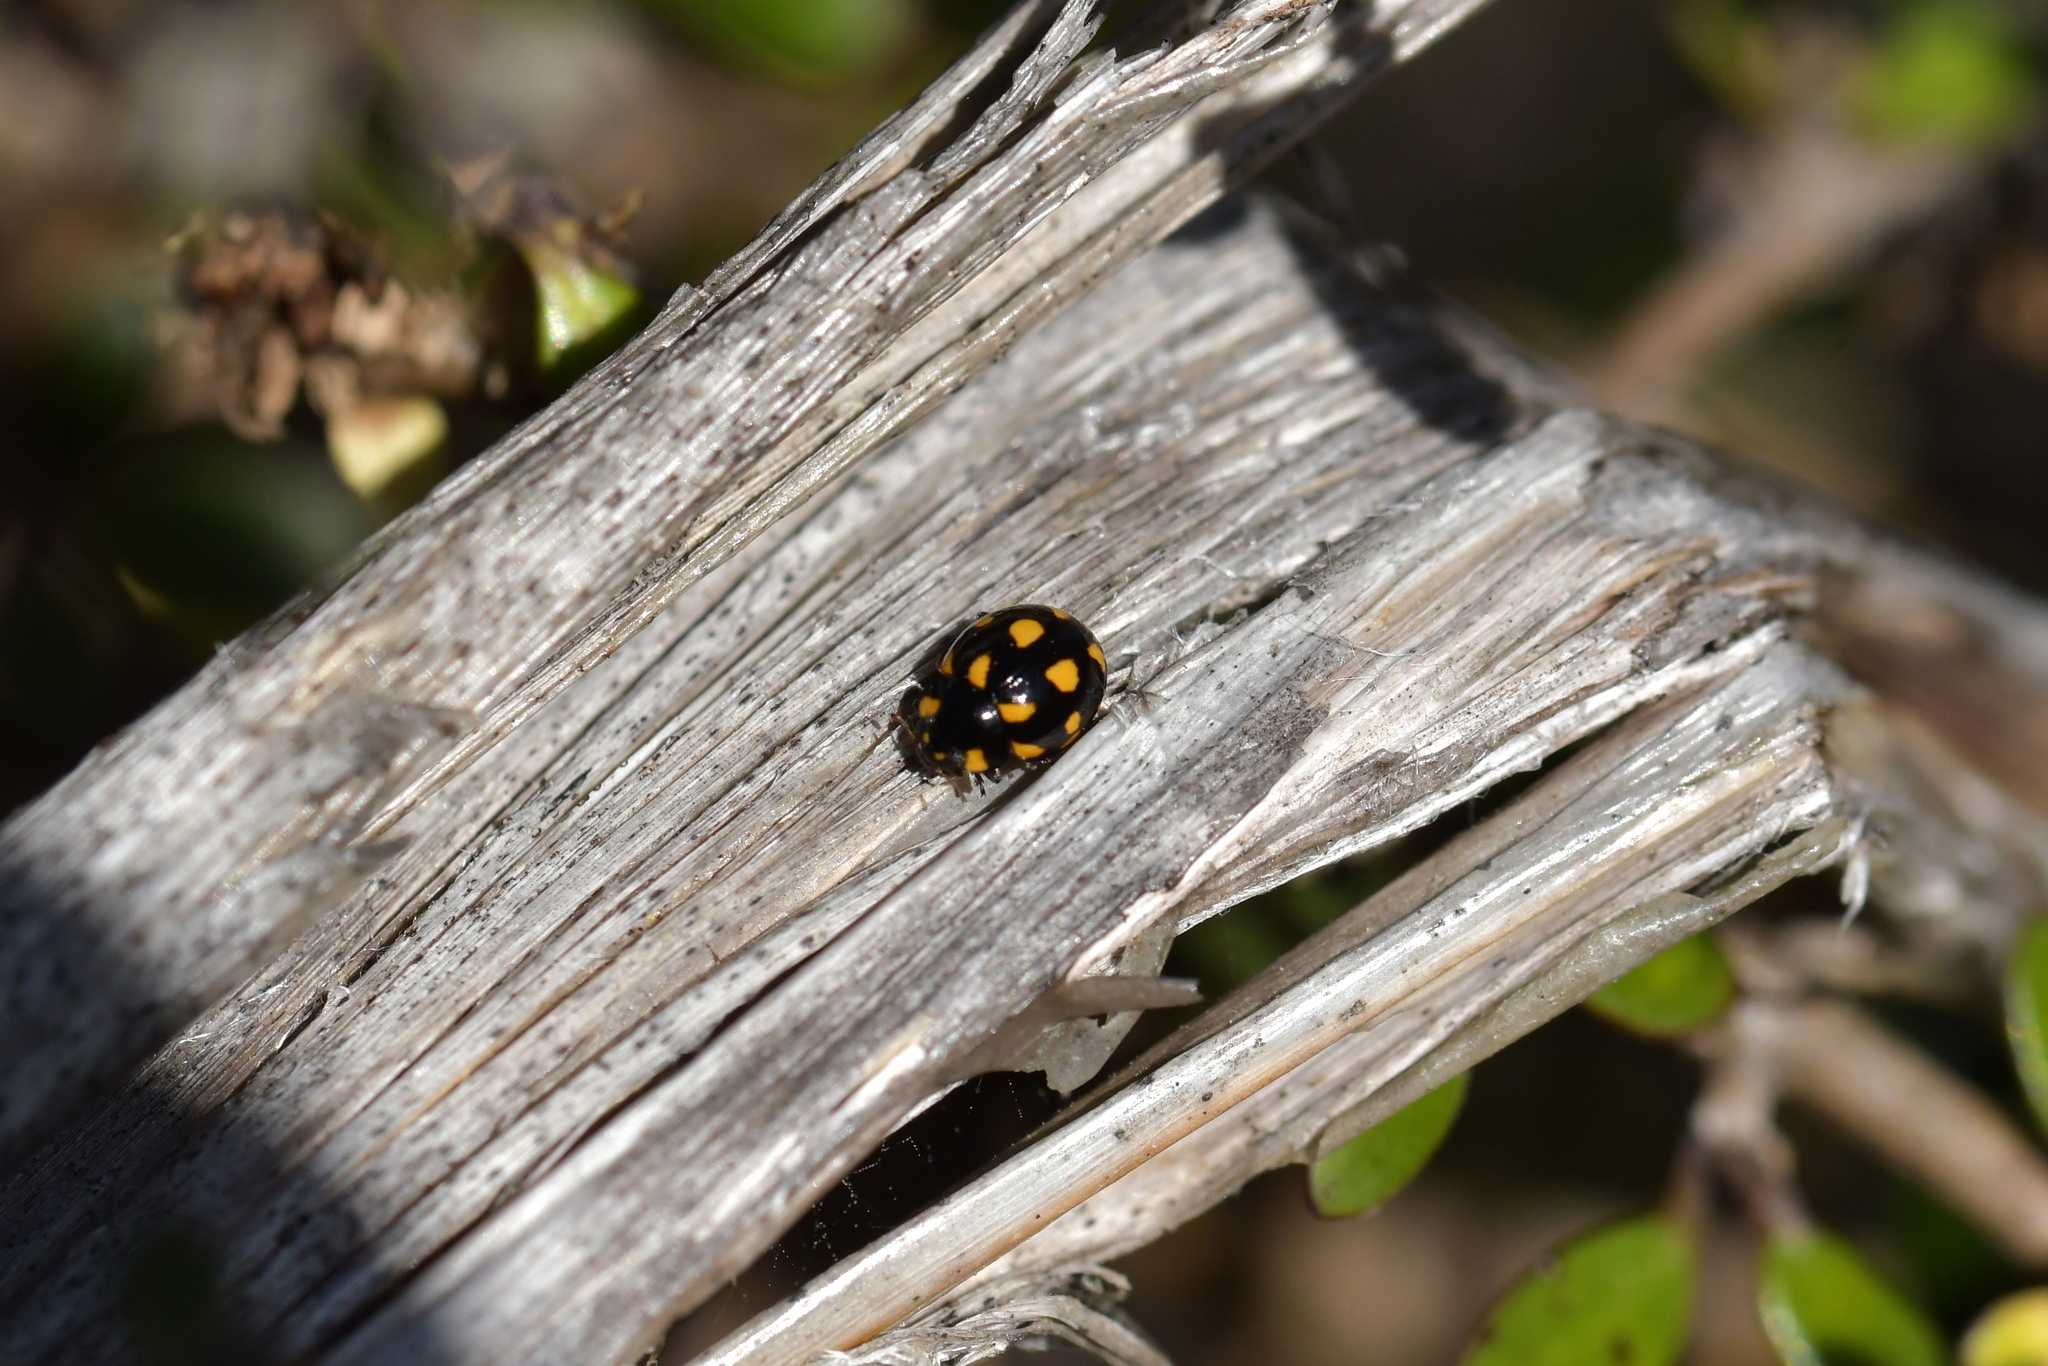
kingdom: Animalia
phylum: Arthropoda
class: Insecta
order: Coleoptera
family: Coccinellidae
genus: Coccinella
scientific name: Coccinella leonina
